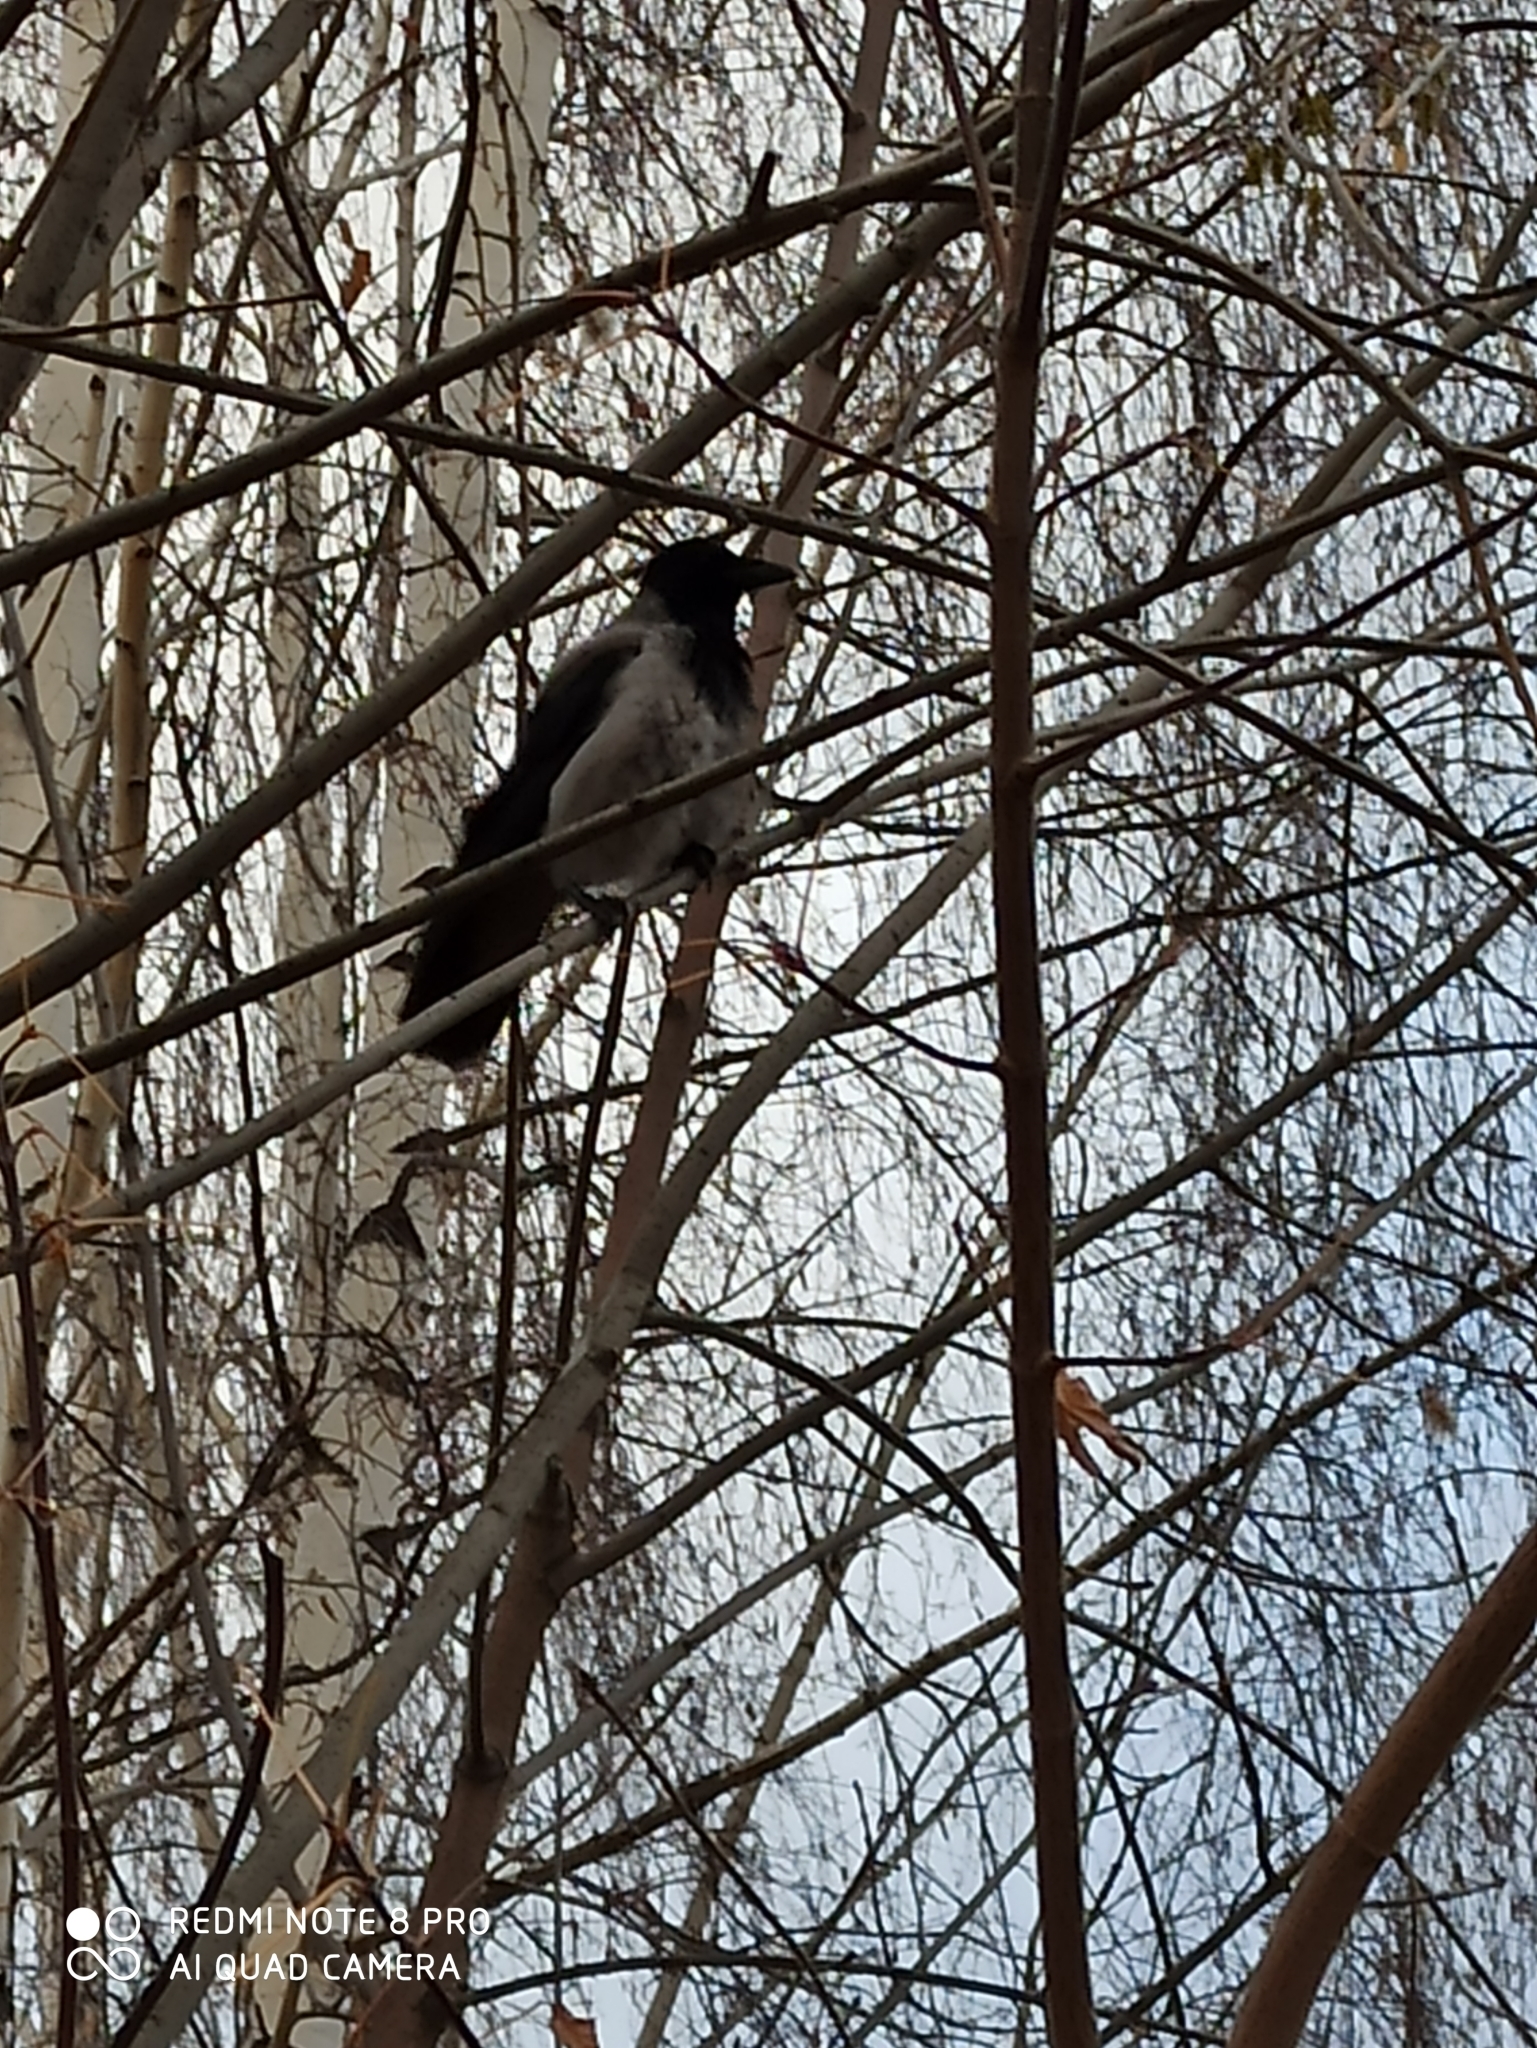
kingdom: Animalia
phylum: Chordata
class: Aves
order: Passeriformes
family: Corvidae
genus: Corvus
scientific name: Corvus cornix
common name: Hooded crow
